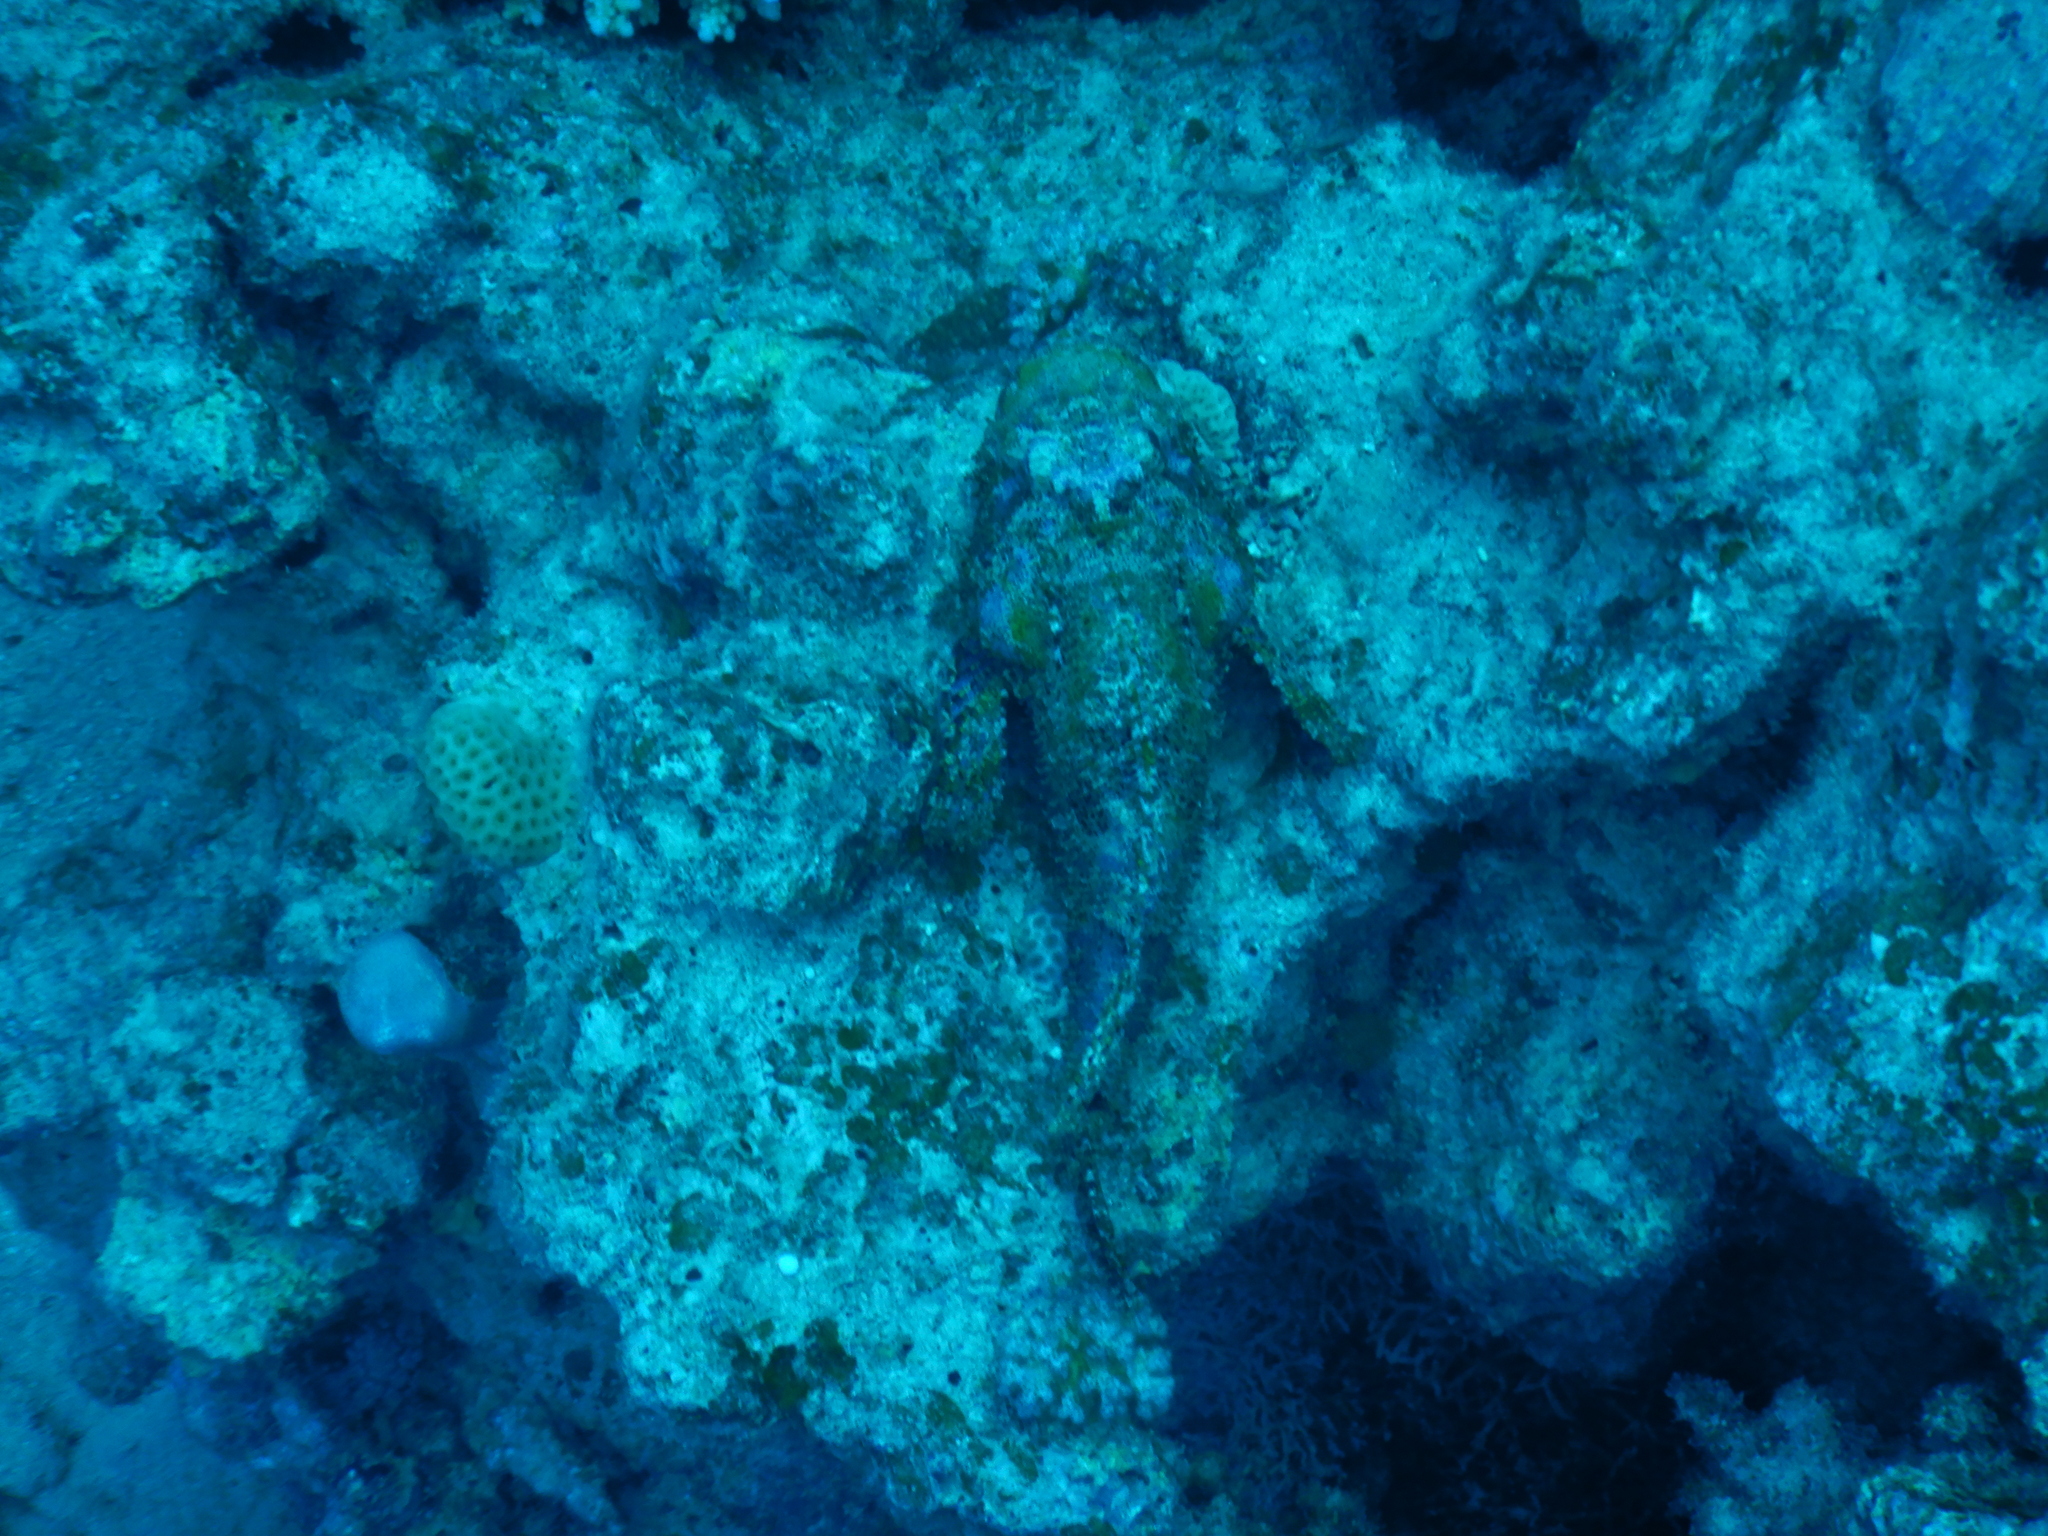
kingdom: Animalia
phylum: Chordata
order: Scorpaeniformes
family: Scorpaenidae
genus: Scorpaenopsis
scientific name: Scorpaenopsis diabolus
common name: False stonefish
